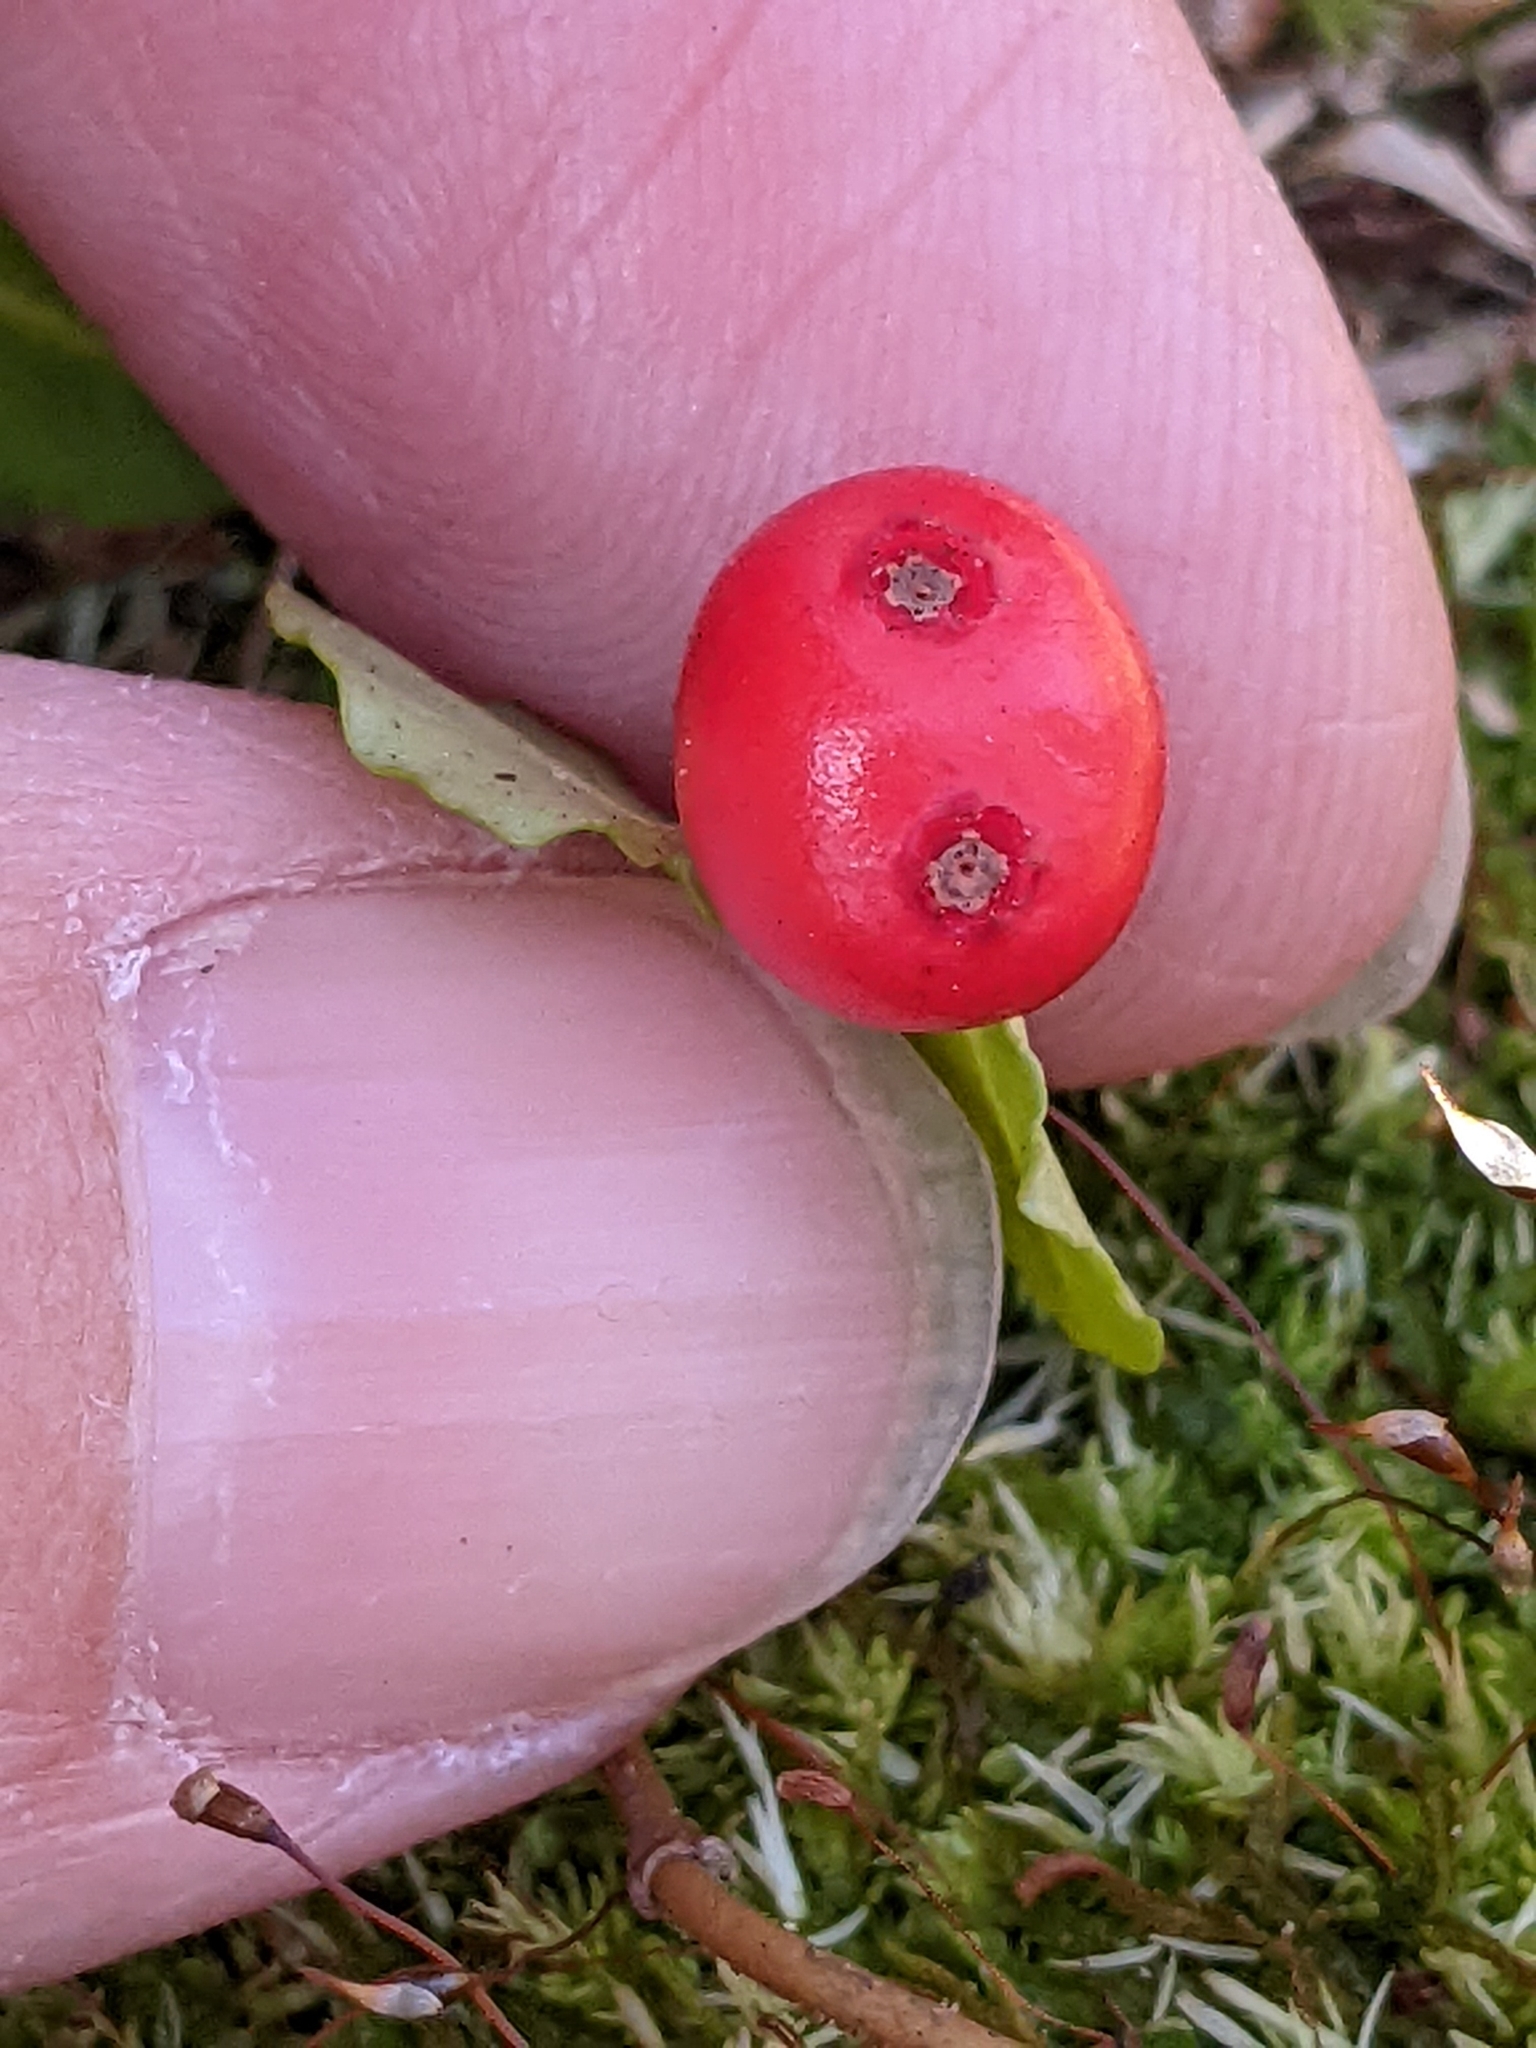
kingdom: Plantae
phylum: Tracheophyta
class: Magnoliopsida
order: Gentianales
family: Rubiaceae
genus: Mitchella
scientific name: Mitchella repens
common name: Partridge-berry
